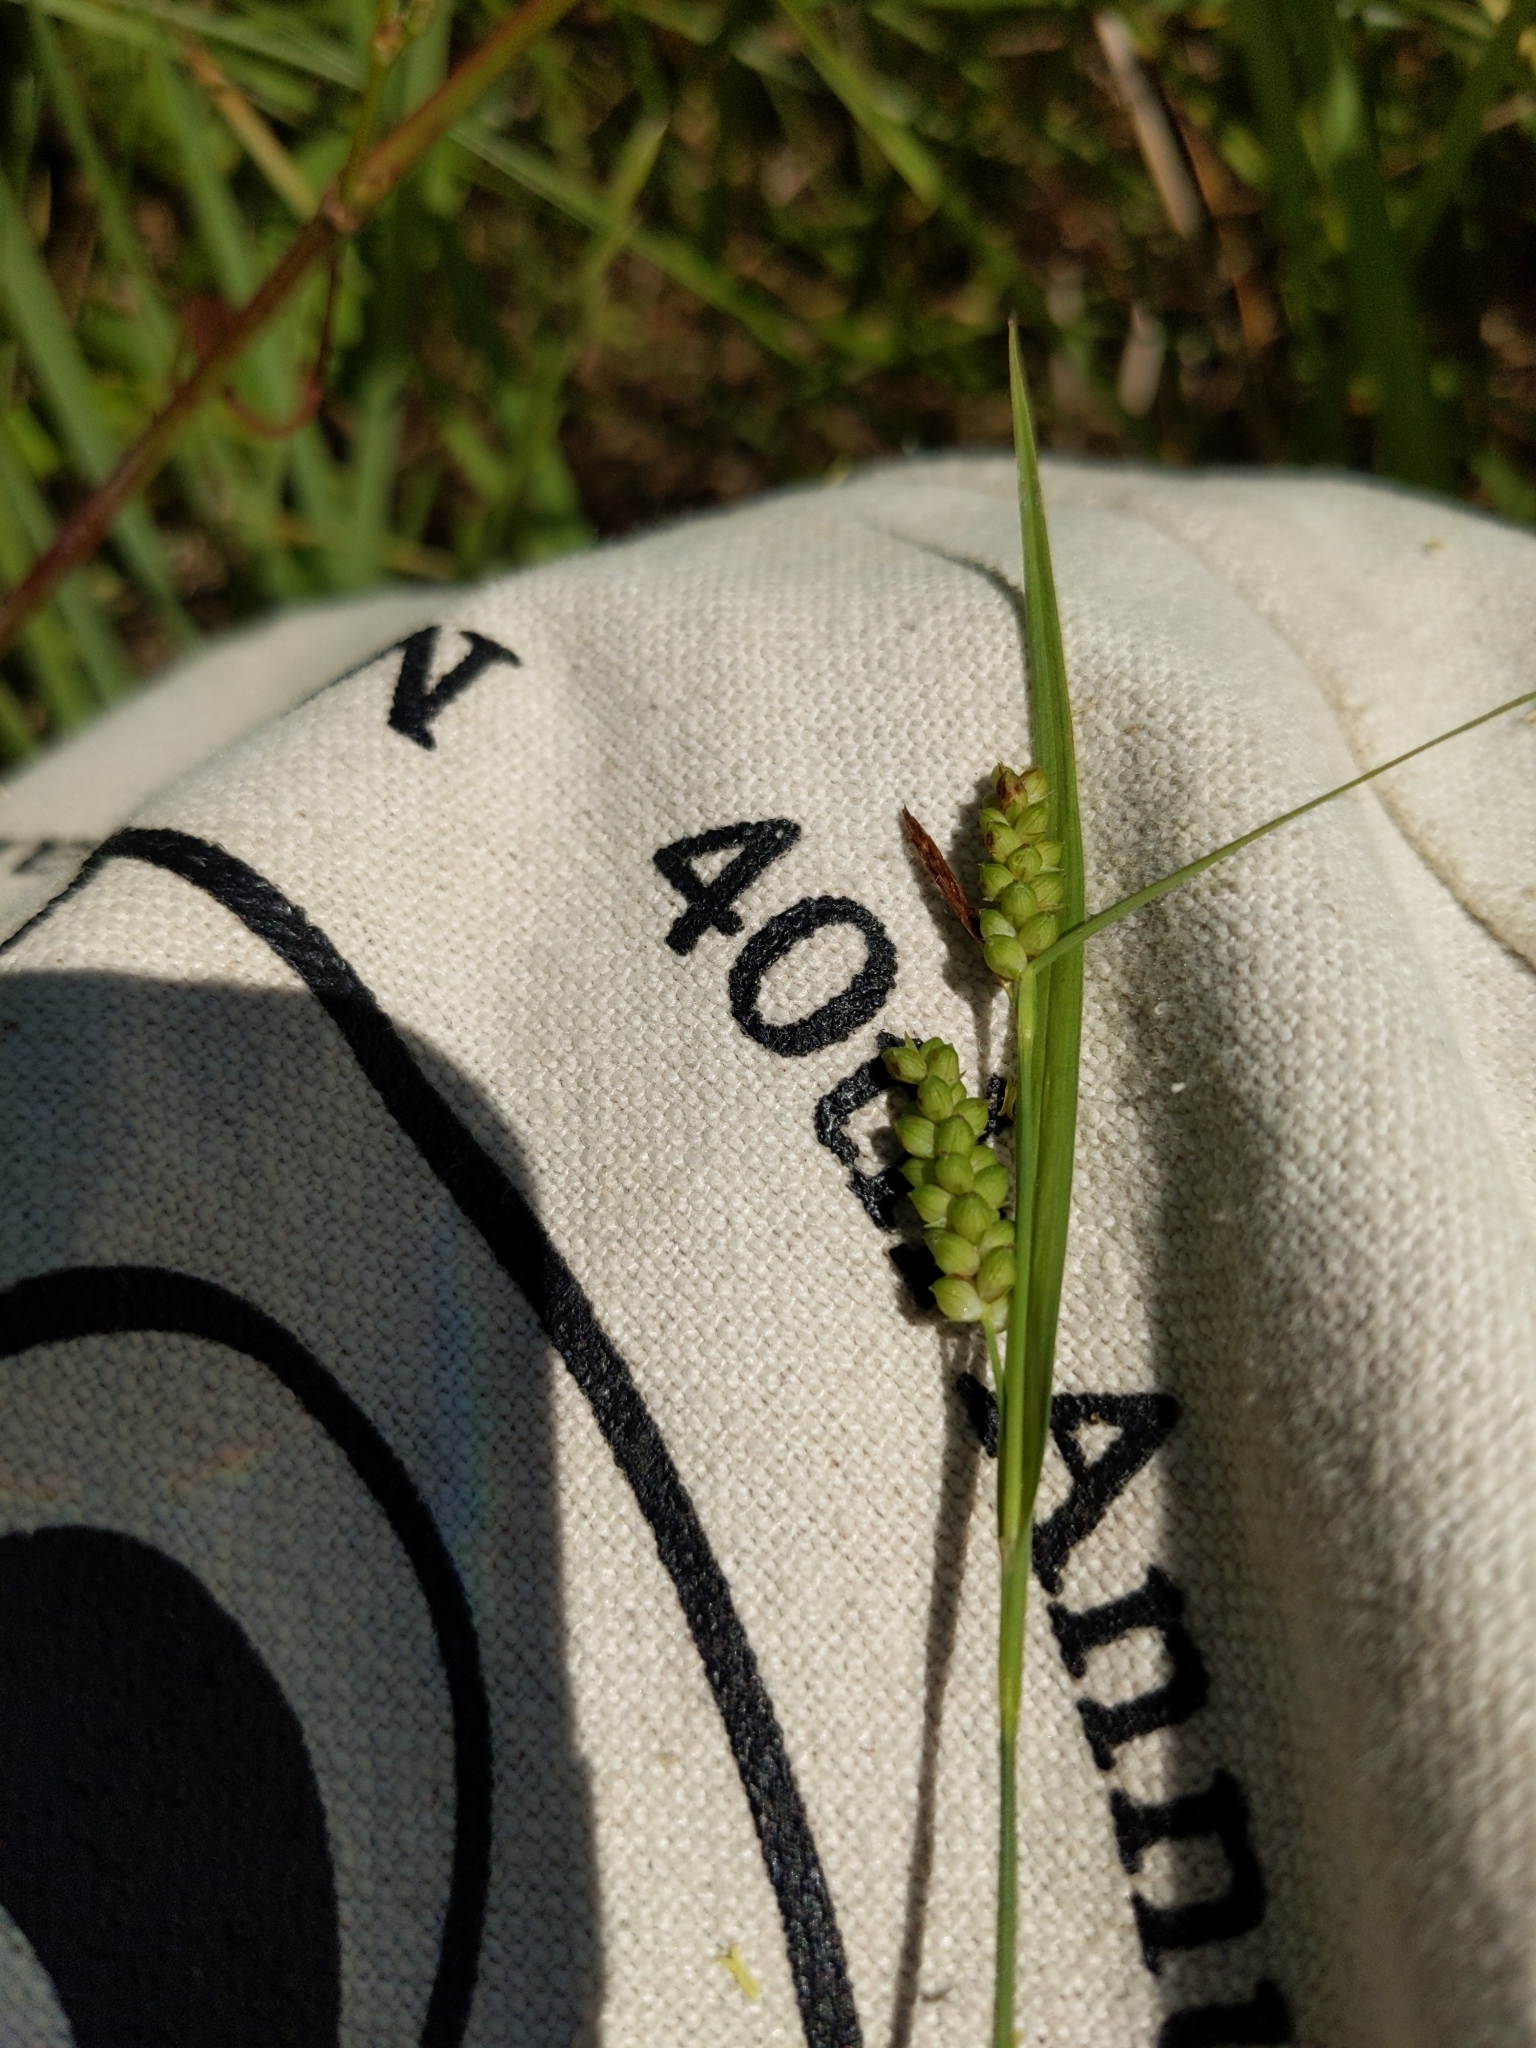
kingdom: Plantae
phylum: Tracheophyta
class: Liliopsida
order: Poales
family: Cyperaceae
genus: Carex
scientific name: Carex granularis
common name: Granular sedge
